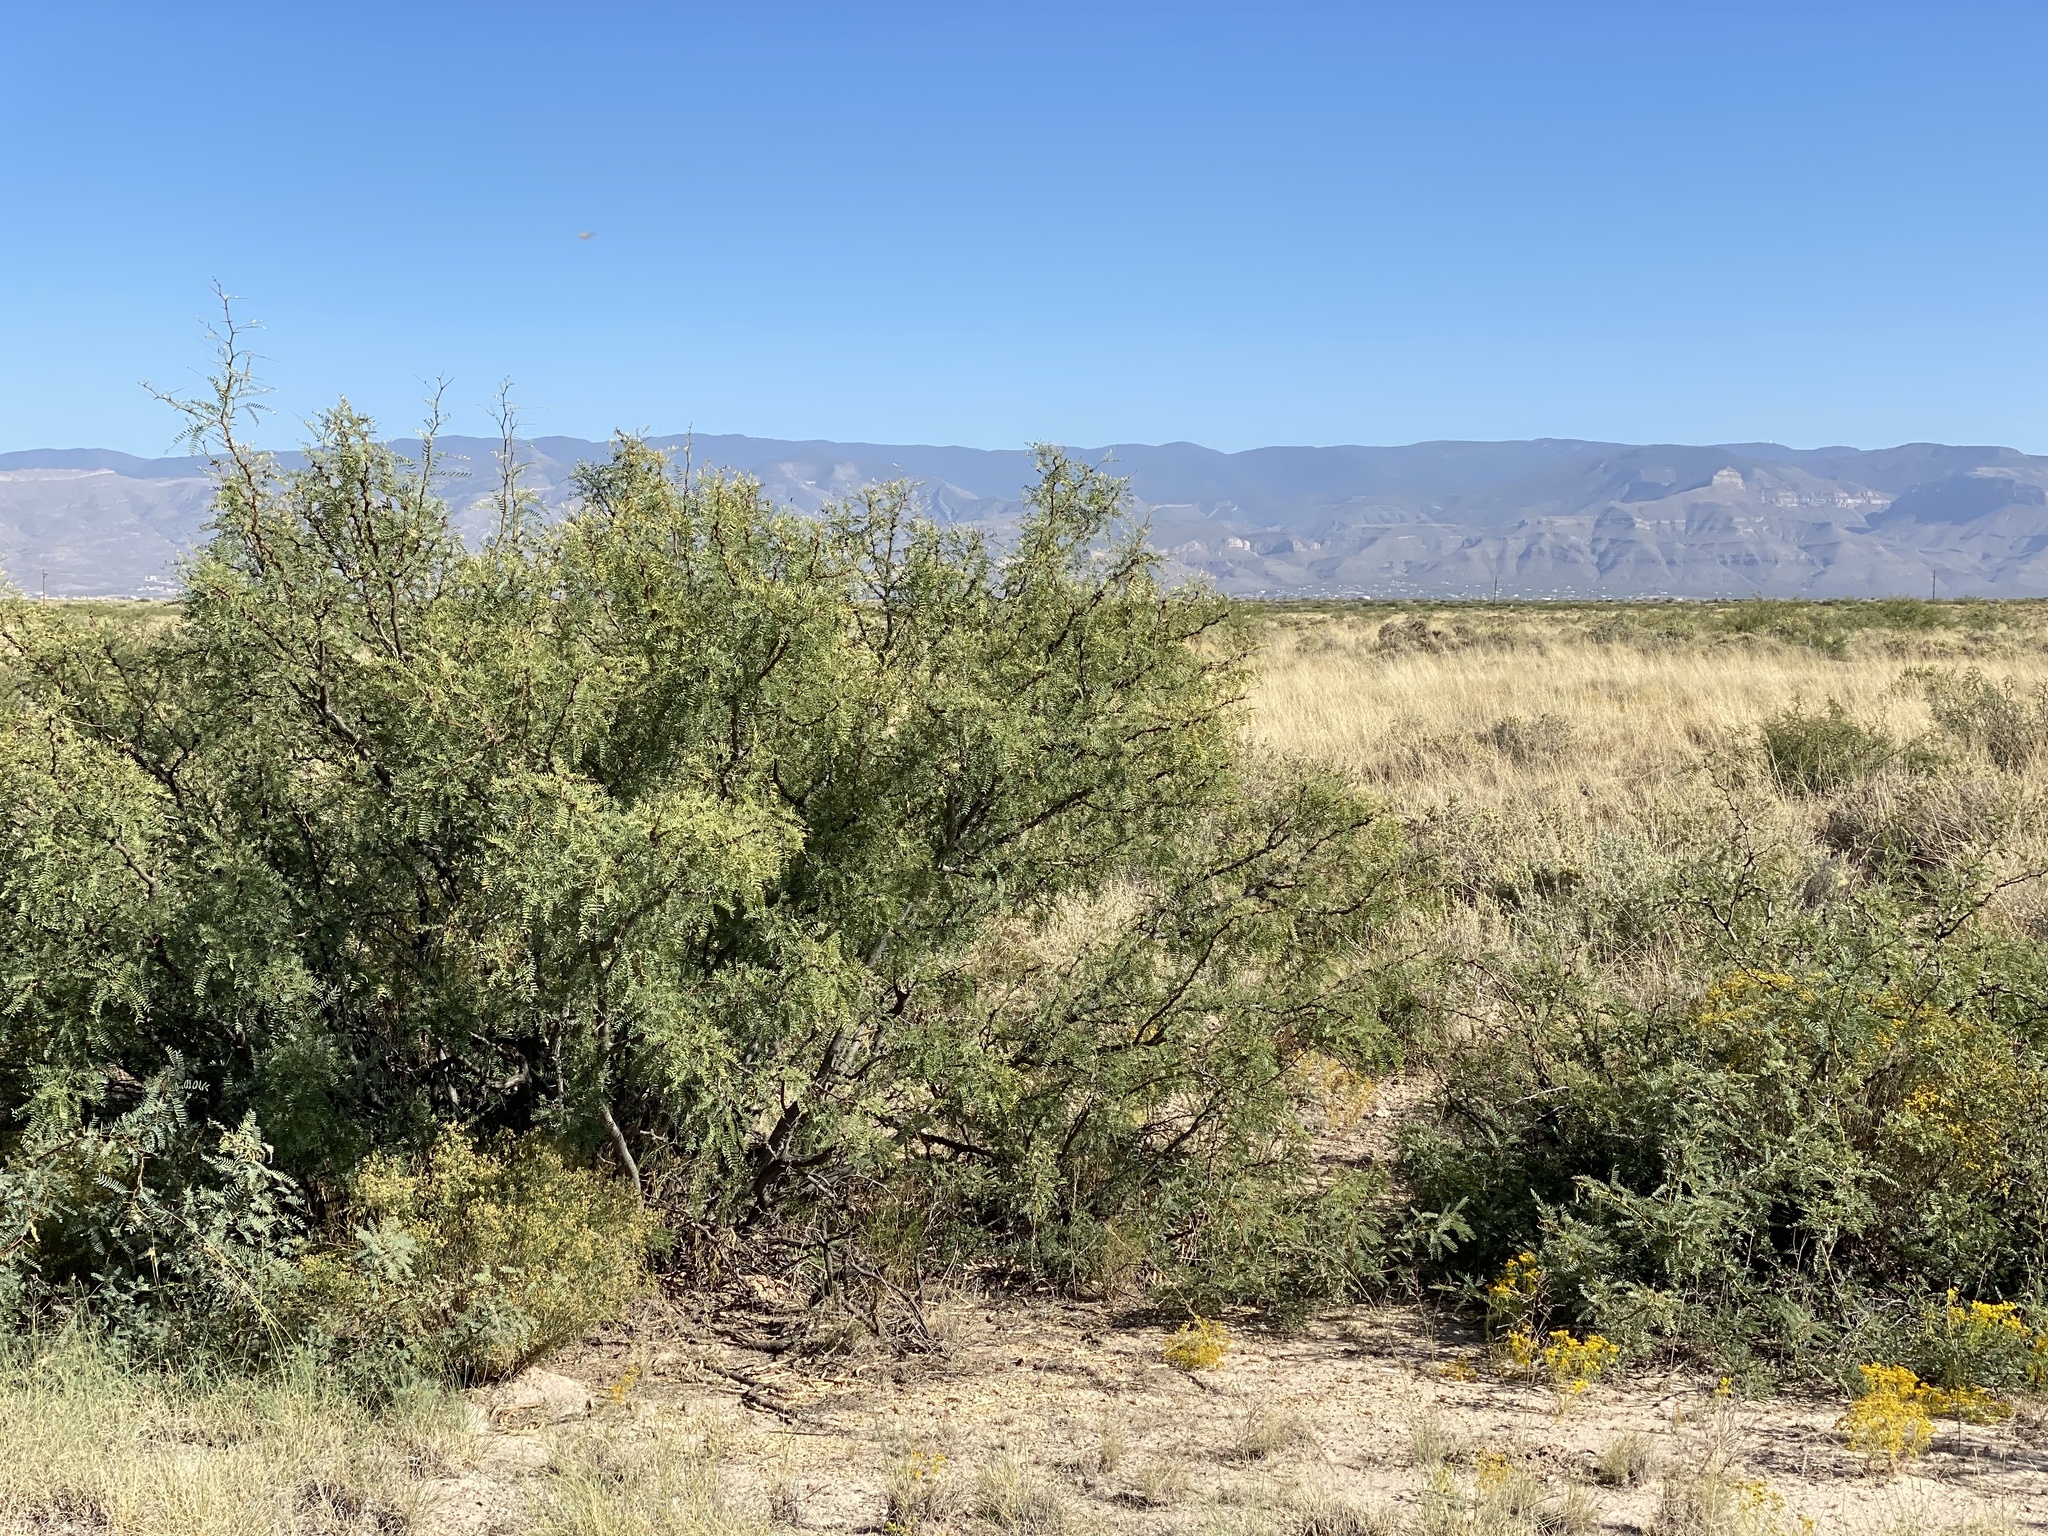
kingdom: Plantae
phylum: Tracheophyta
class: Magnoliopsida
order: Fabales
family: Fabaceae
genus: Prosopis
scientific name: Prosopis glandulosa
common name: Honey mesquite
